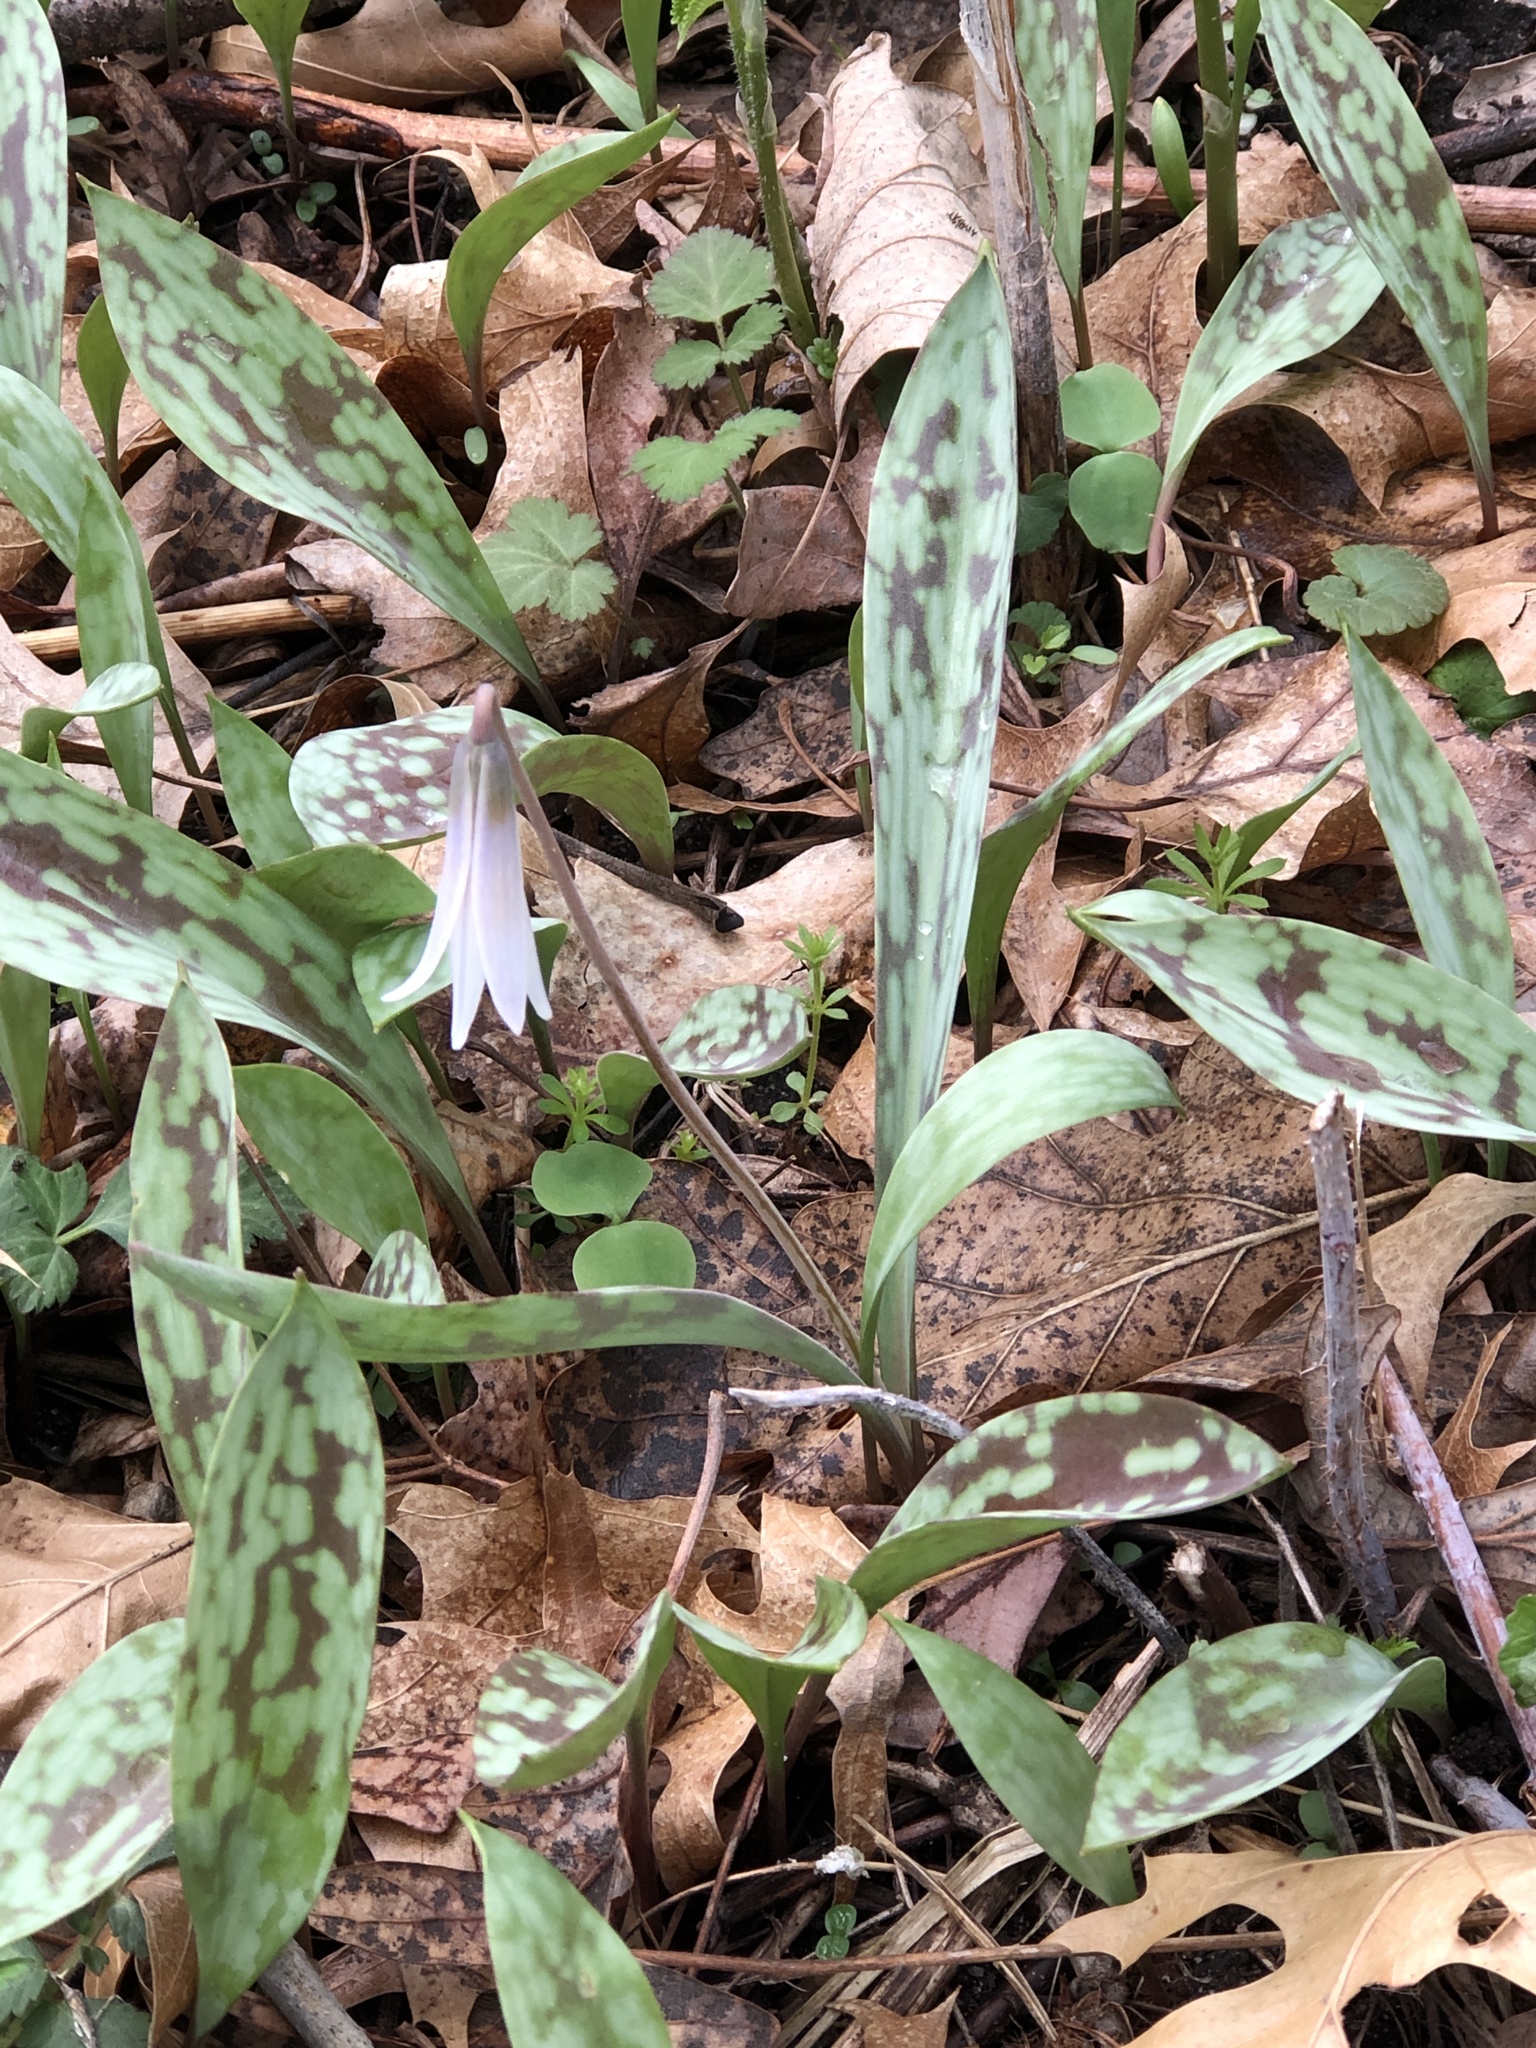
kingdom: Plantae
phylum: Tracheophyta
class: Liliopsida
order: Liliales
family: Liliaceae
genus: Erythronium
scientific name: Erythronium albidum
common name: White trout-lily
